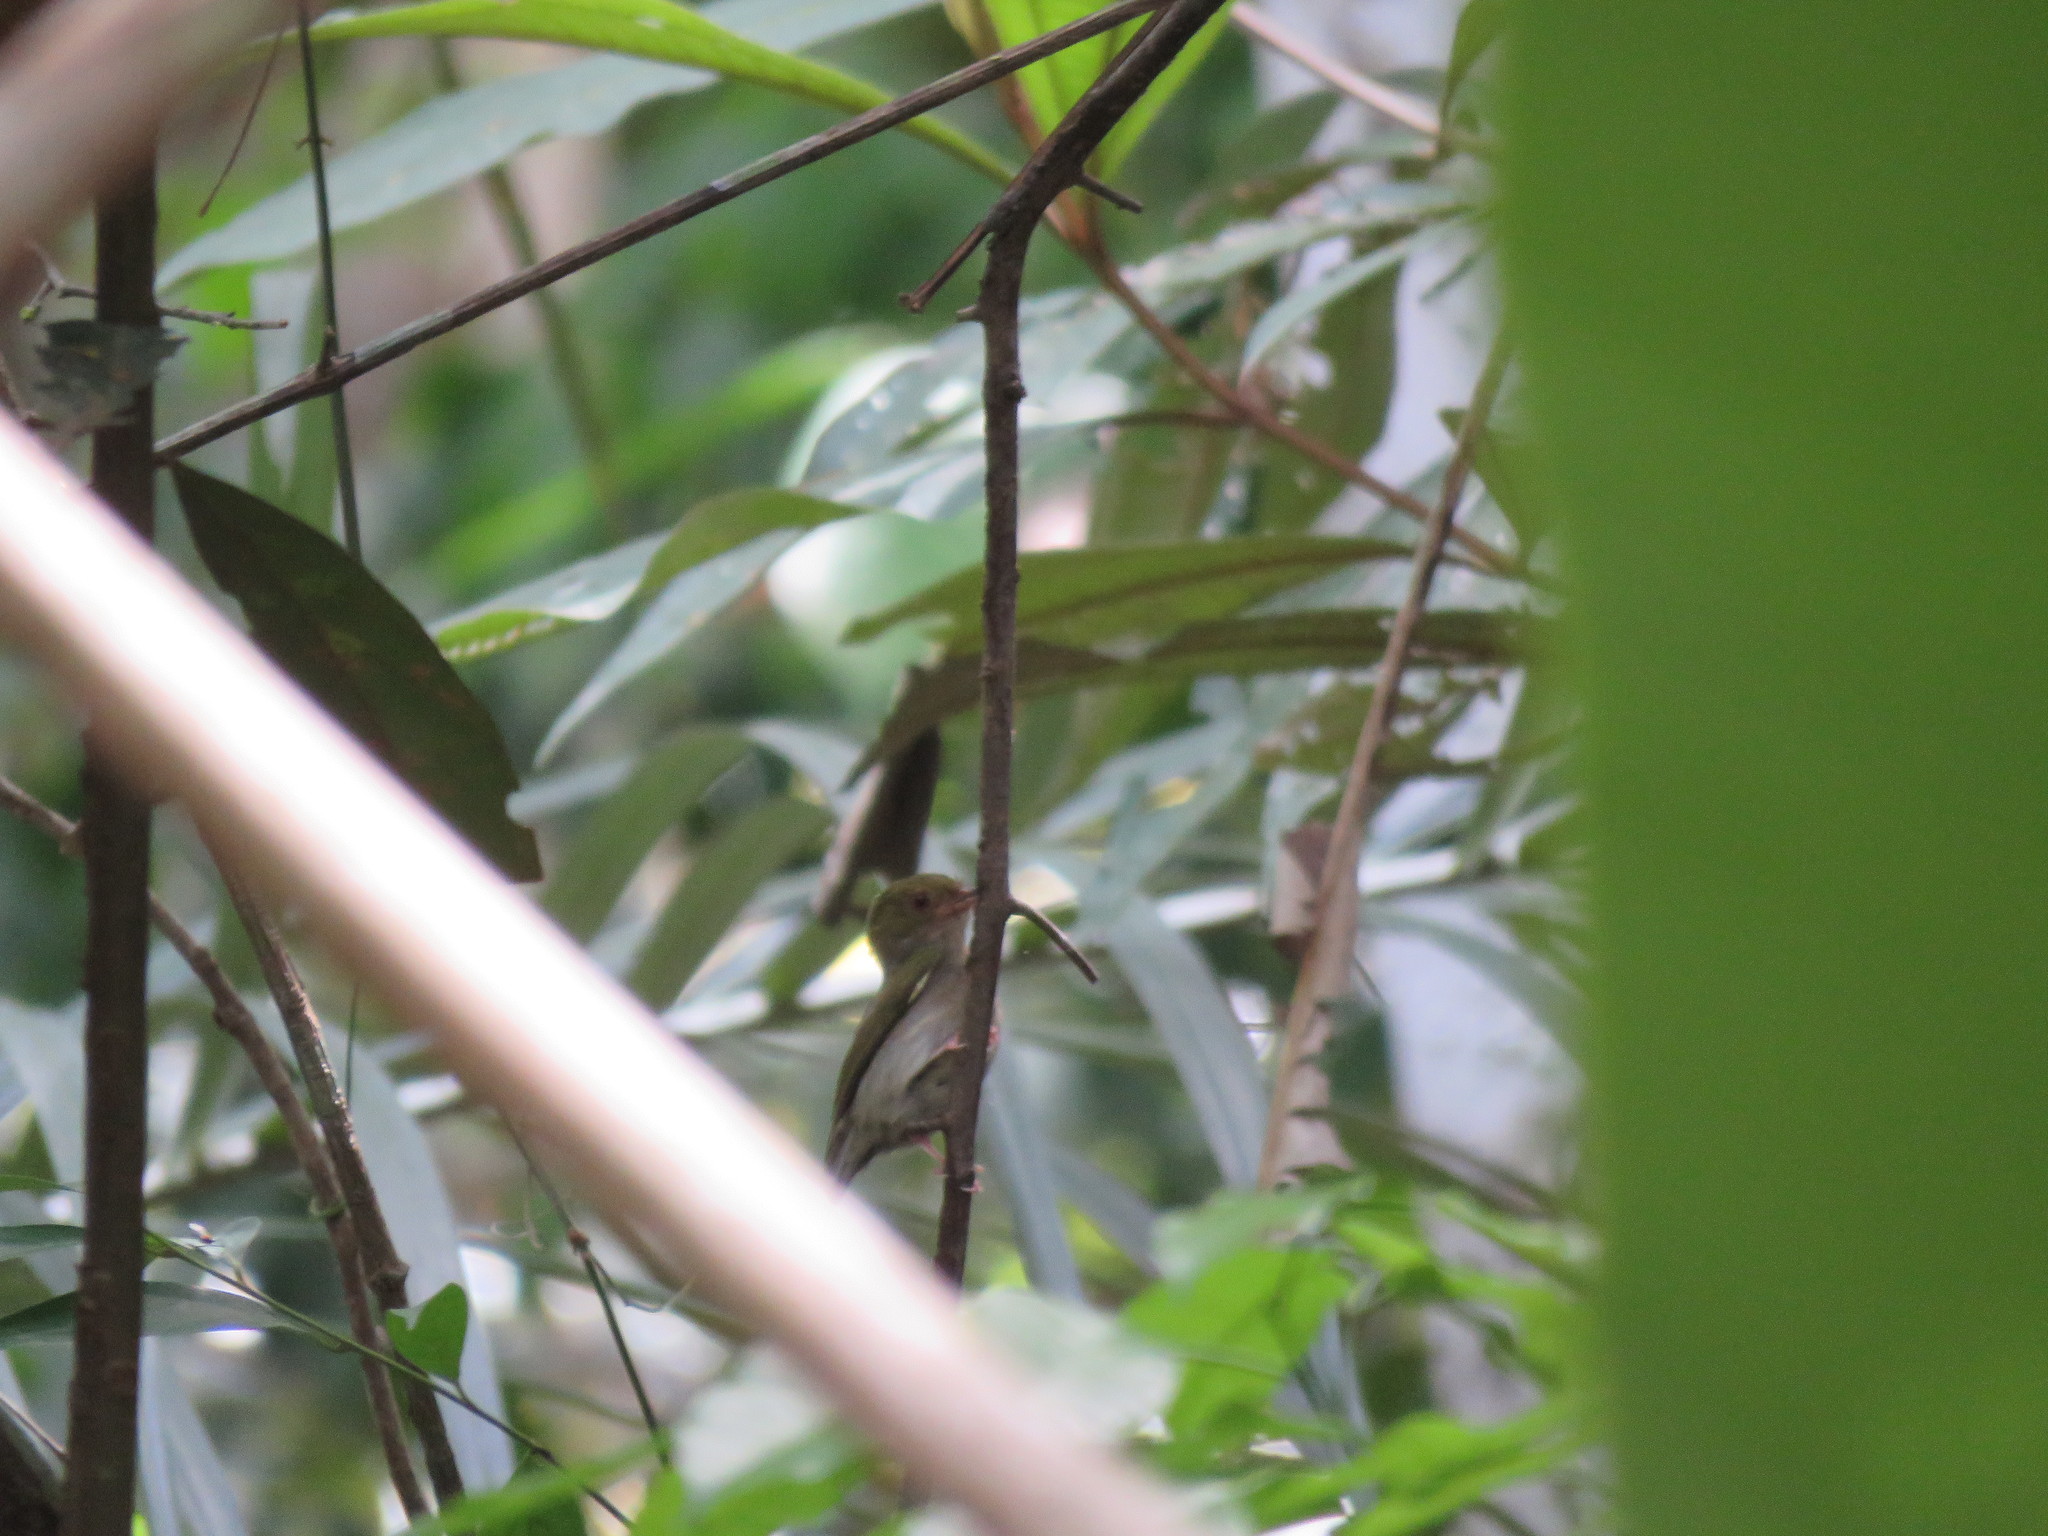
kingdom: Animalia
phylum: Chordata
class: Aves
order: Passeriformes
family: Pipridae
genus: Machaeropterus
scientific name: Machaeropterus pyrocephalus
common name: Fiery-capped manakin
